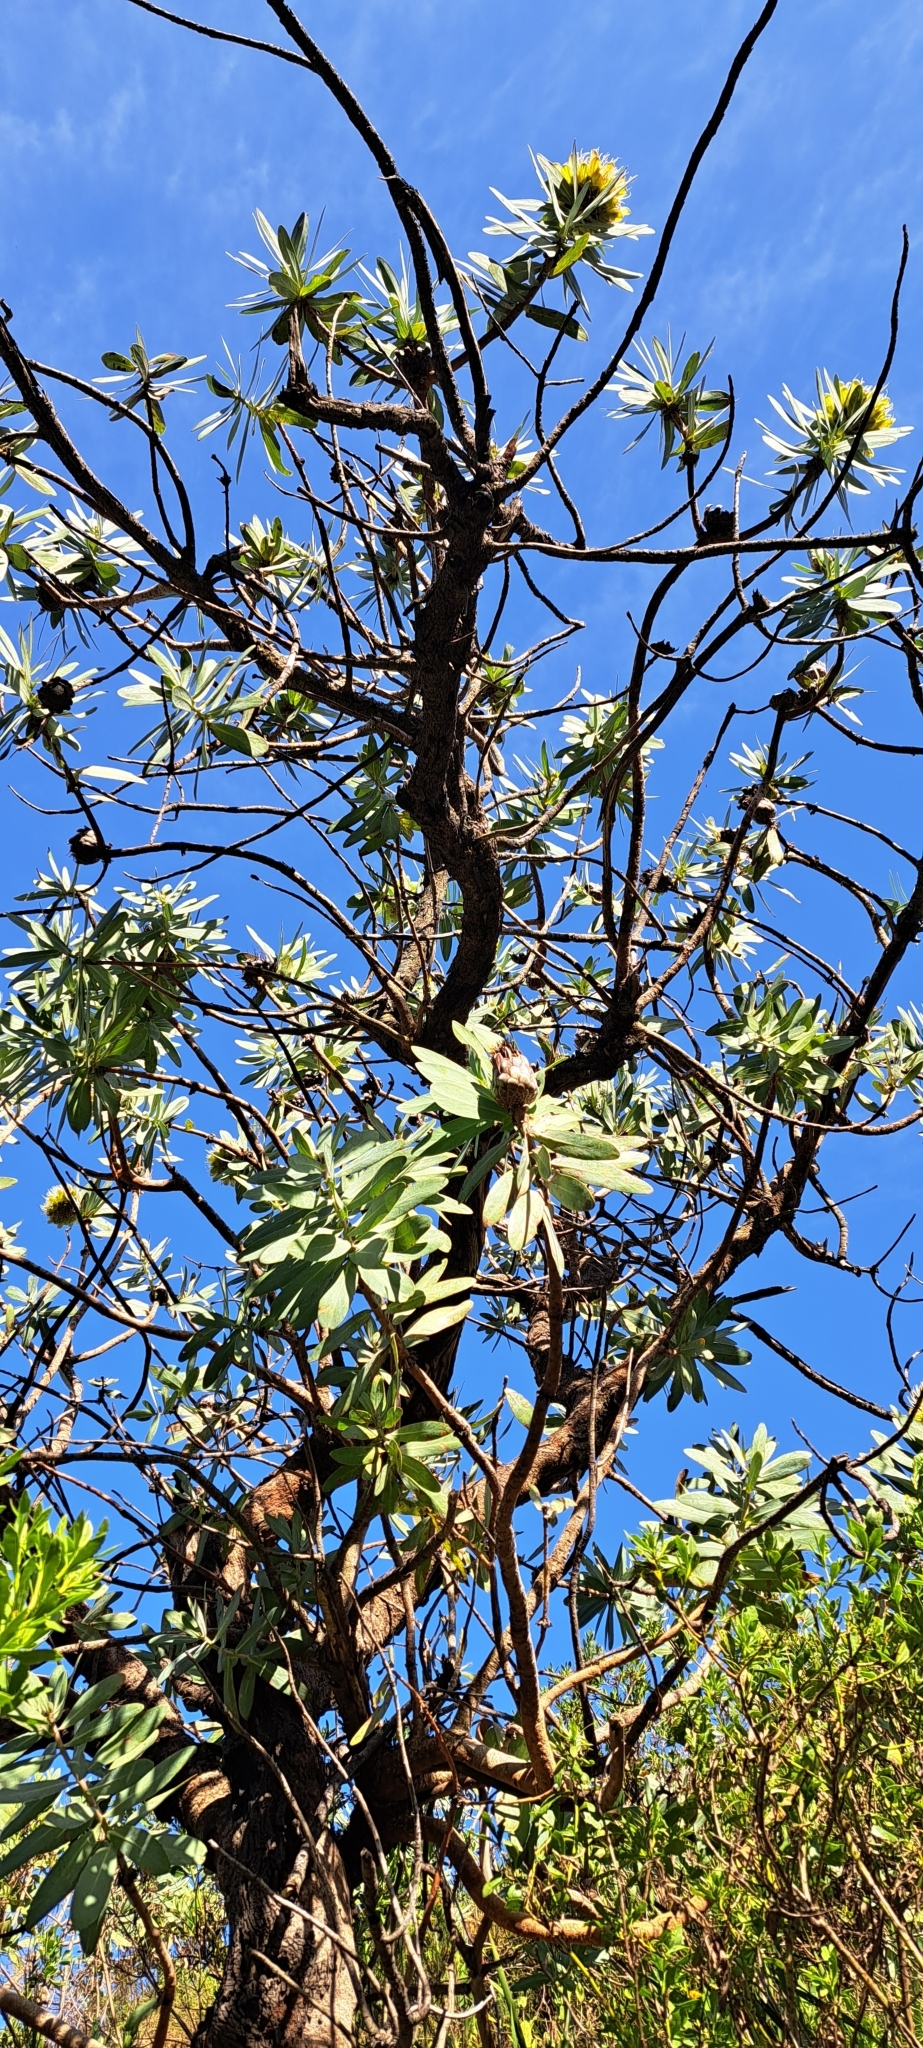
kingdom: Plantae
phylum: Tracheophyta
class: Magnoliopsida
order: Proteales
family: Proteaceae
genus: Protea
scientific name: Protea nitida
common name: Tree protea
